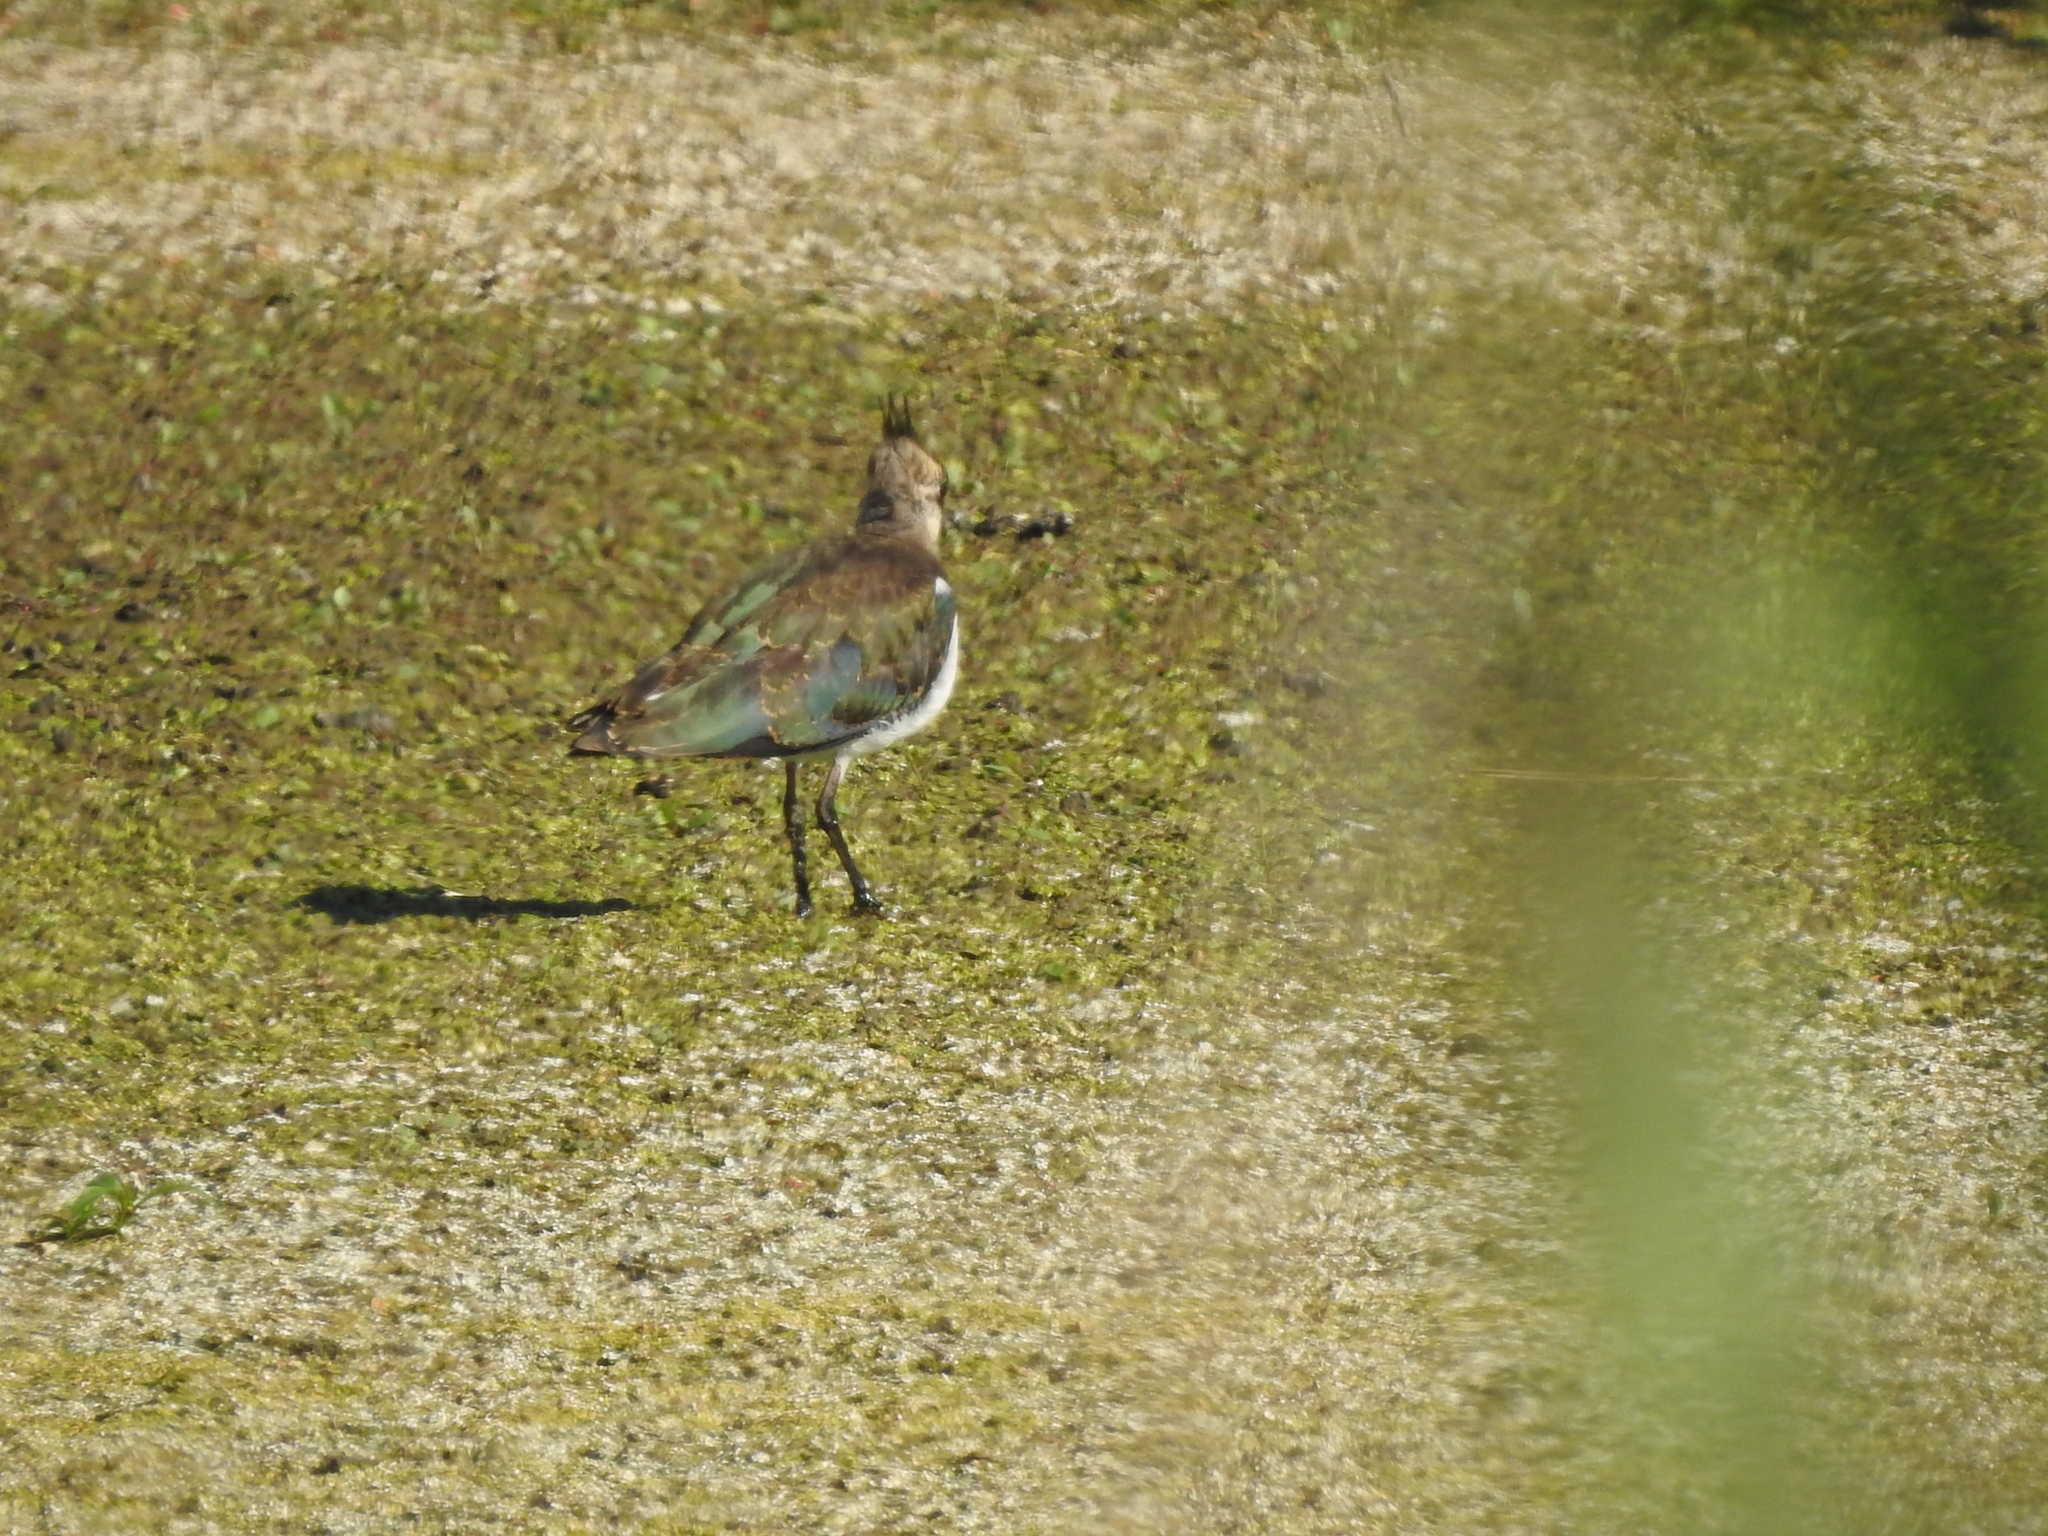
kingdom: Animalia
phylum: Chordata
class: Aves
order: Charadriiformes
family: Charadriidae
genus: Vanellus
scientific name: Vanellus vanellus
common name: Northern lapwing
